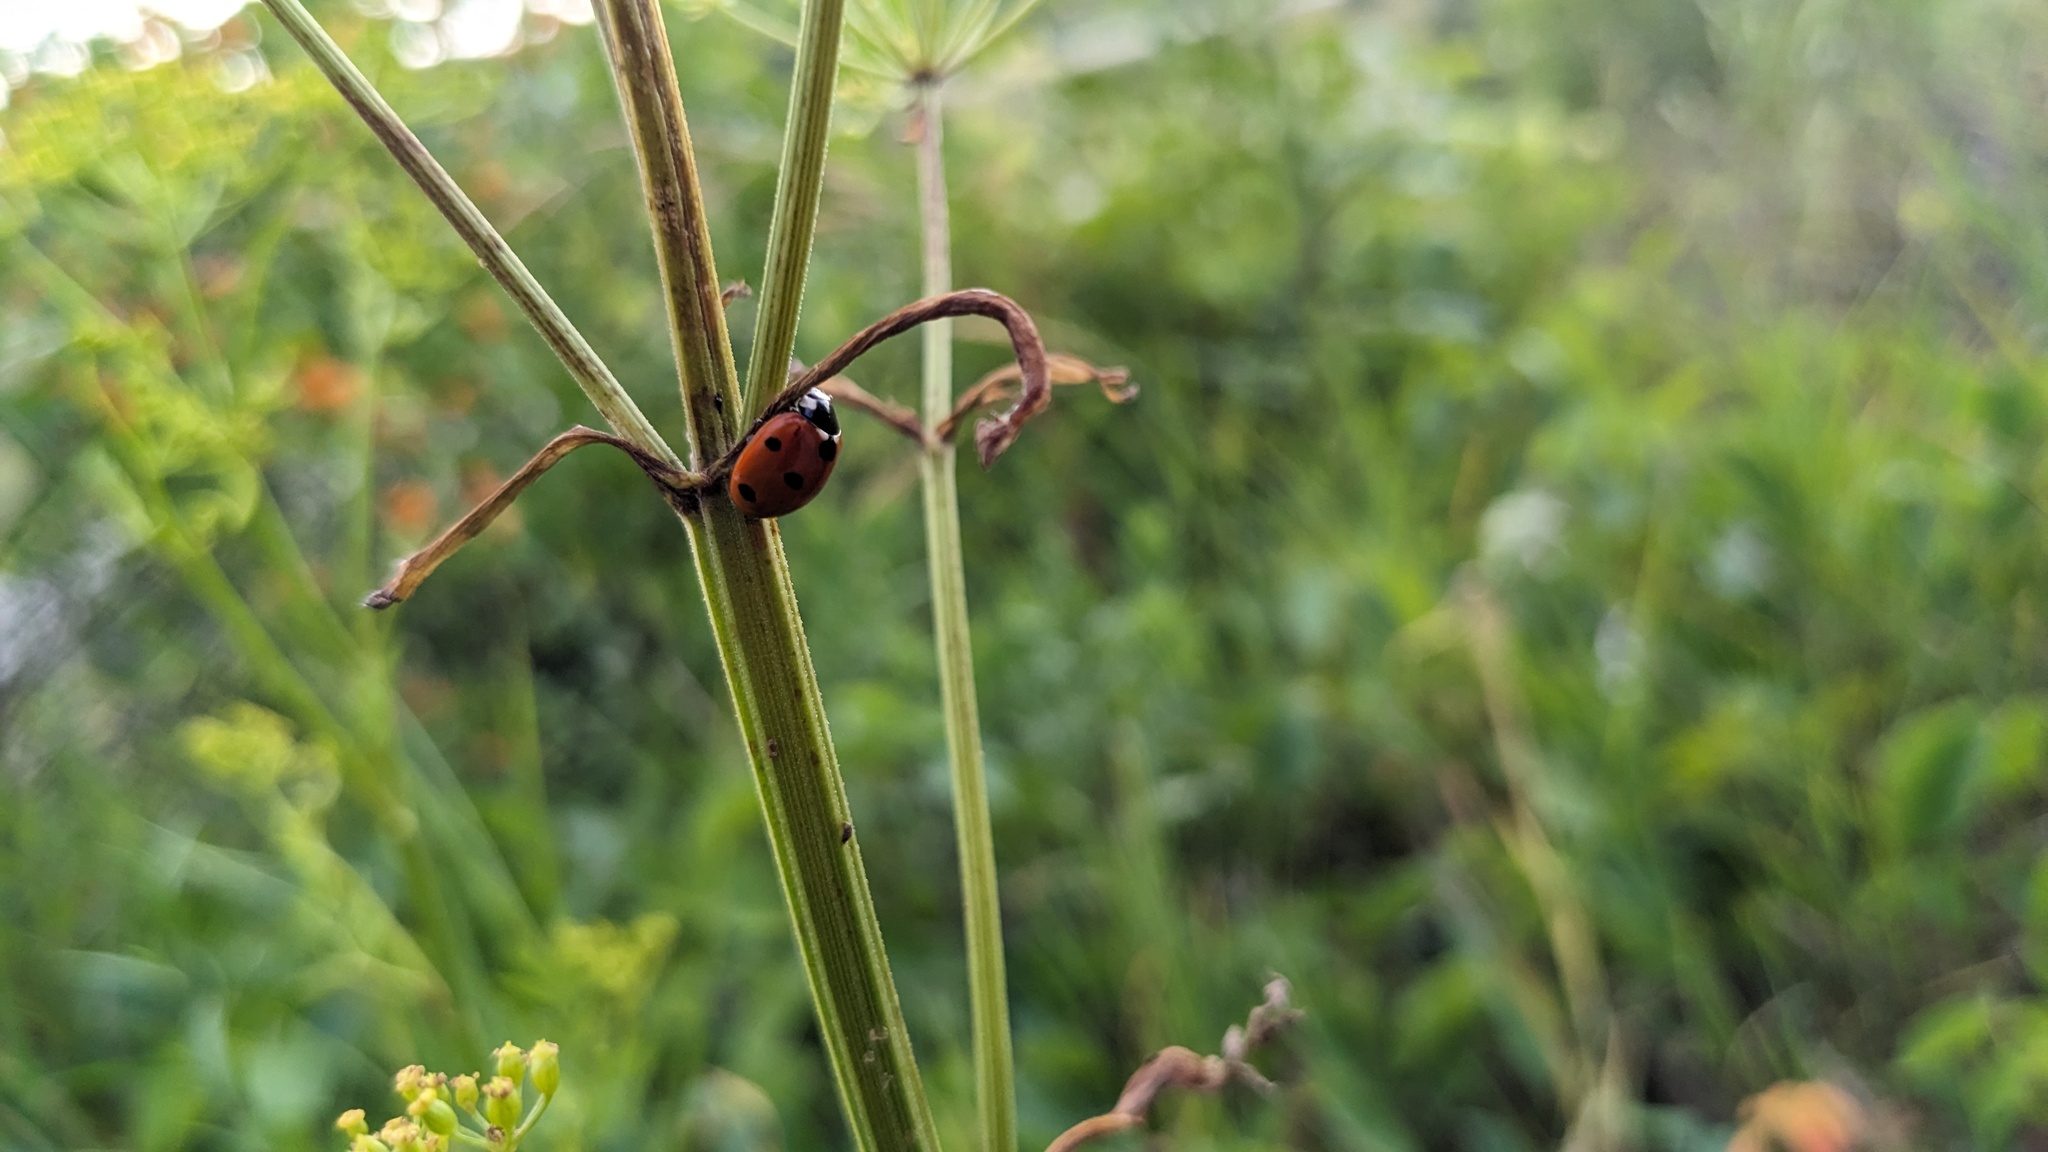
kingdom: Animalia
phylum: Arthropoda
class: Insecta
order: Coleoptera
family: Coccinellidae
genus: Coccinella
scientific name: Coccinella septempunctata
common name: Sevenspotted lady beetle
